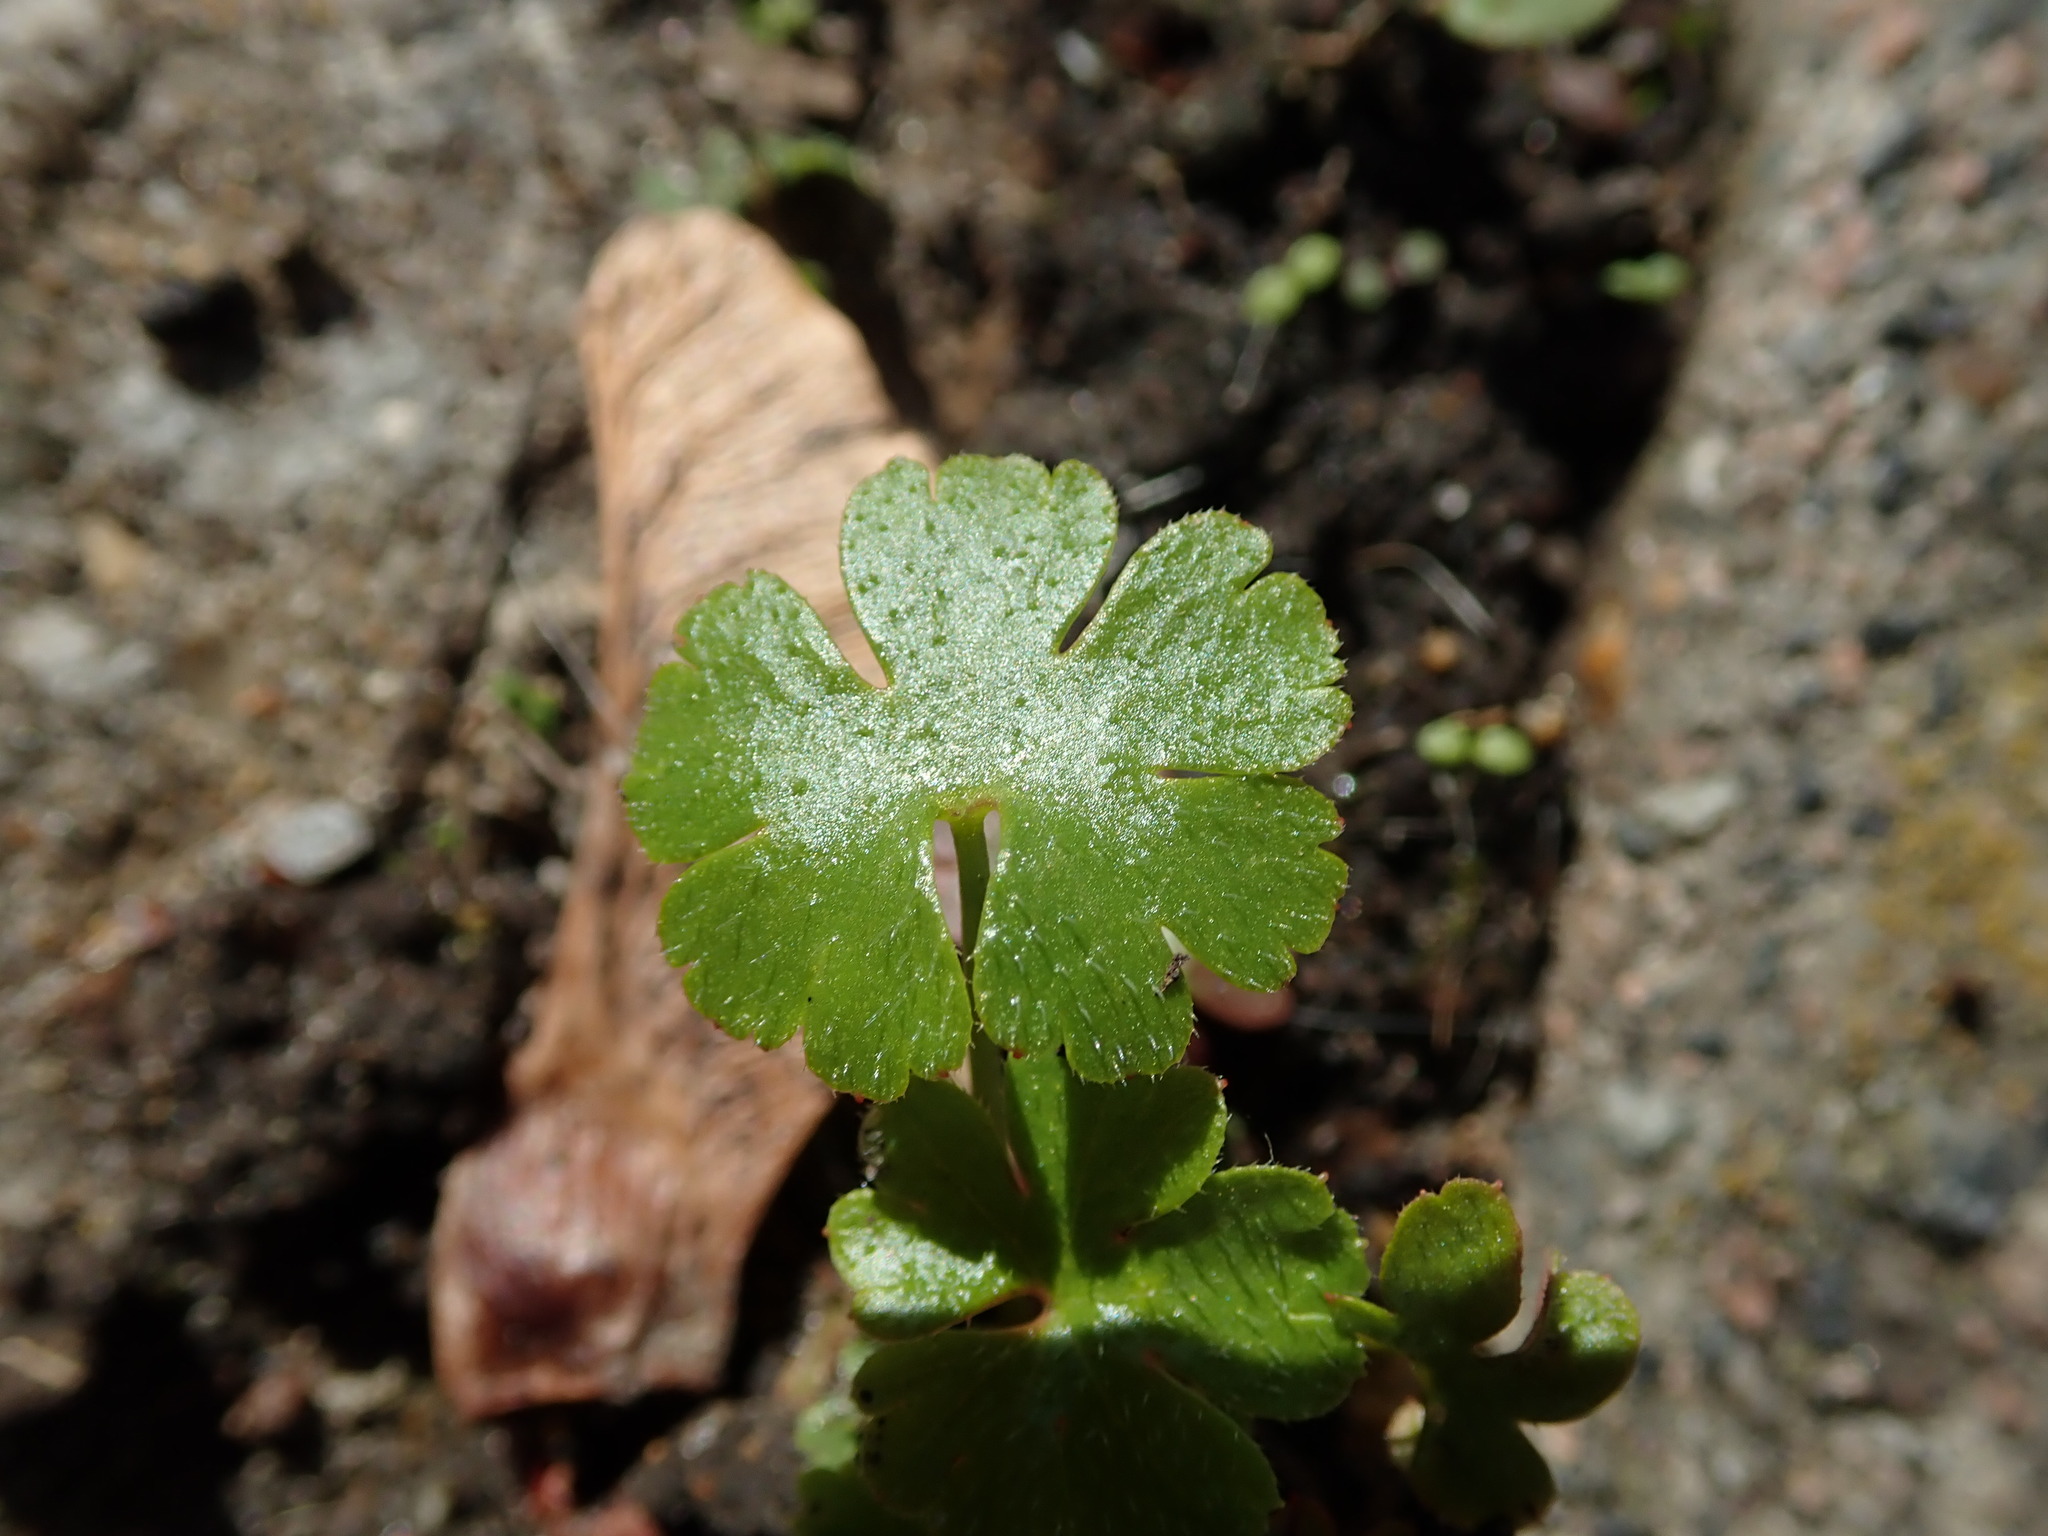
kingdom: Plantae
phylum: Tracheophyta
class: Magnoliopsida
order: Geraniales
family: Geraniaceae
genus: Geranium
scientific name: Geranium lucidum
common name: Shining crane's-bill
